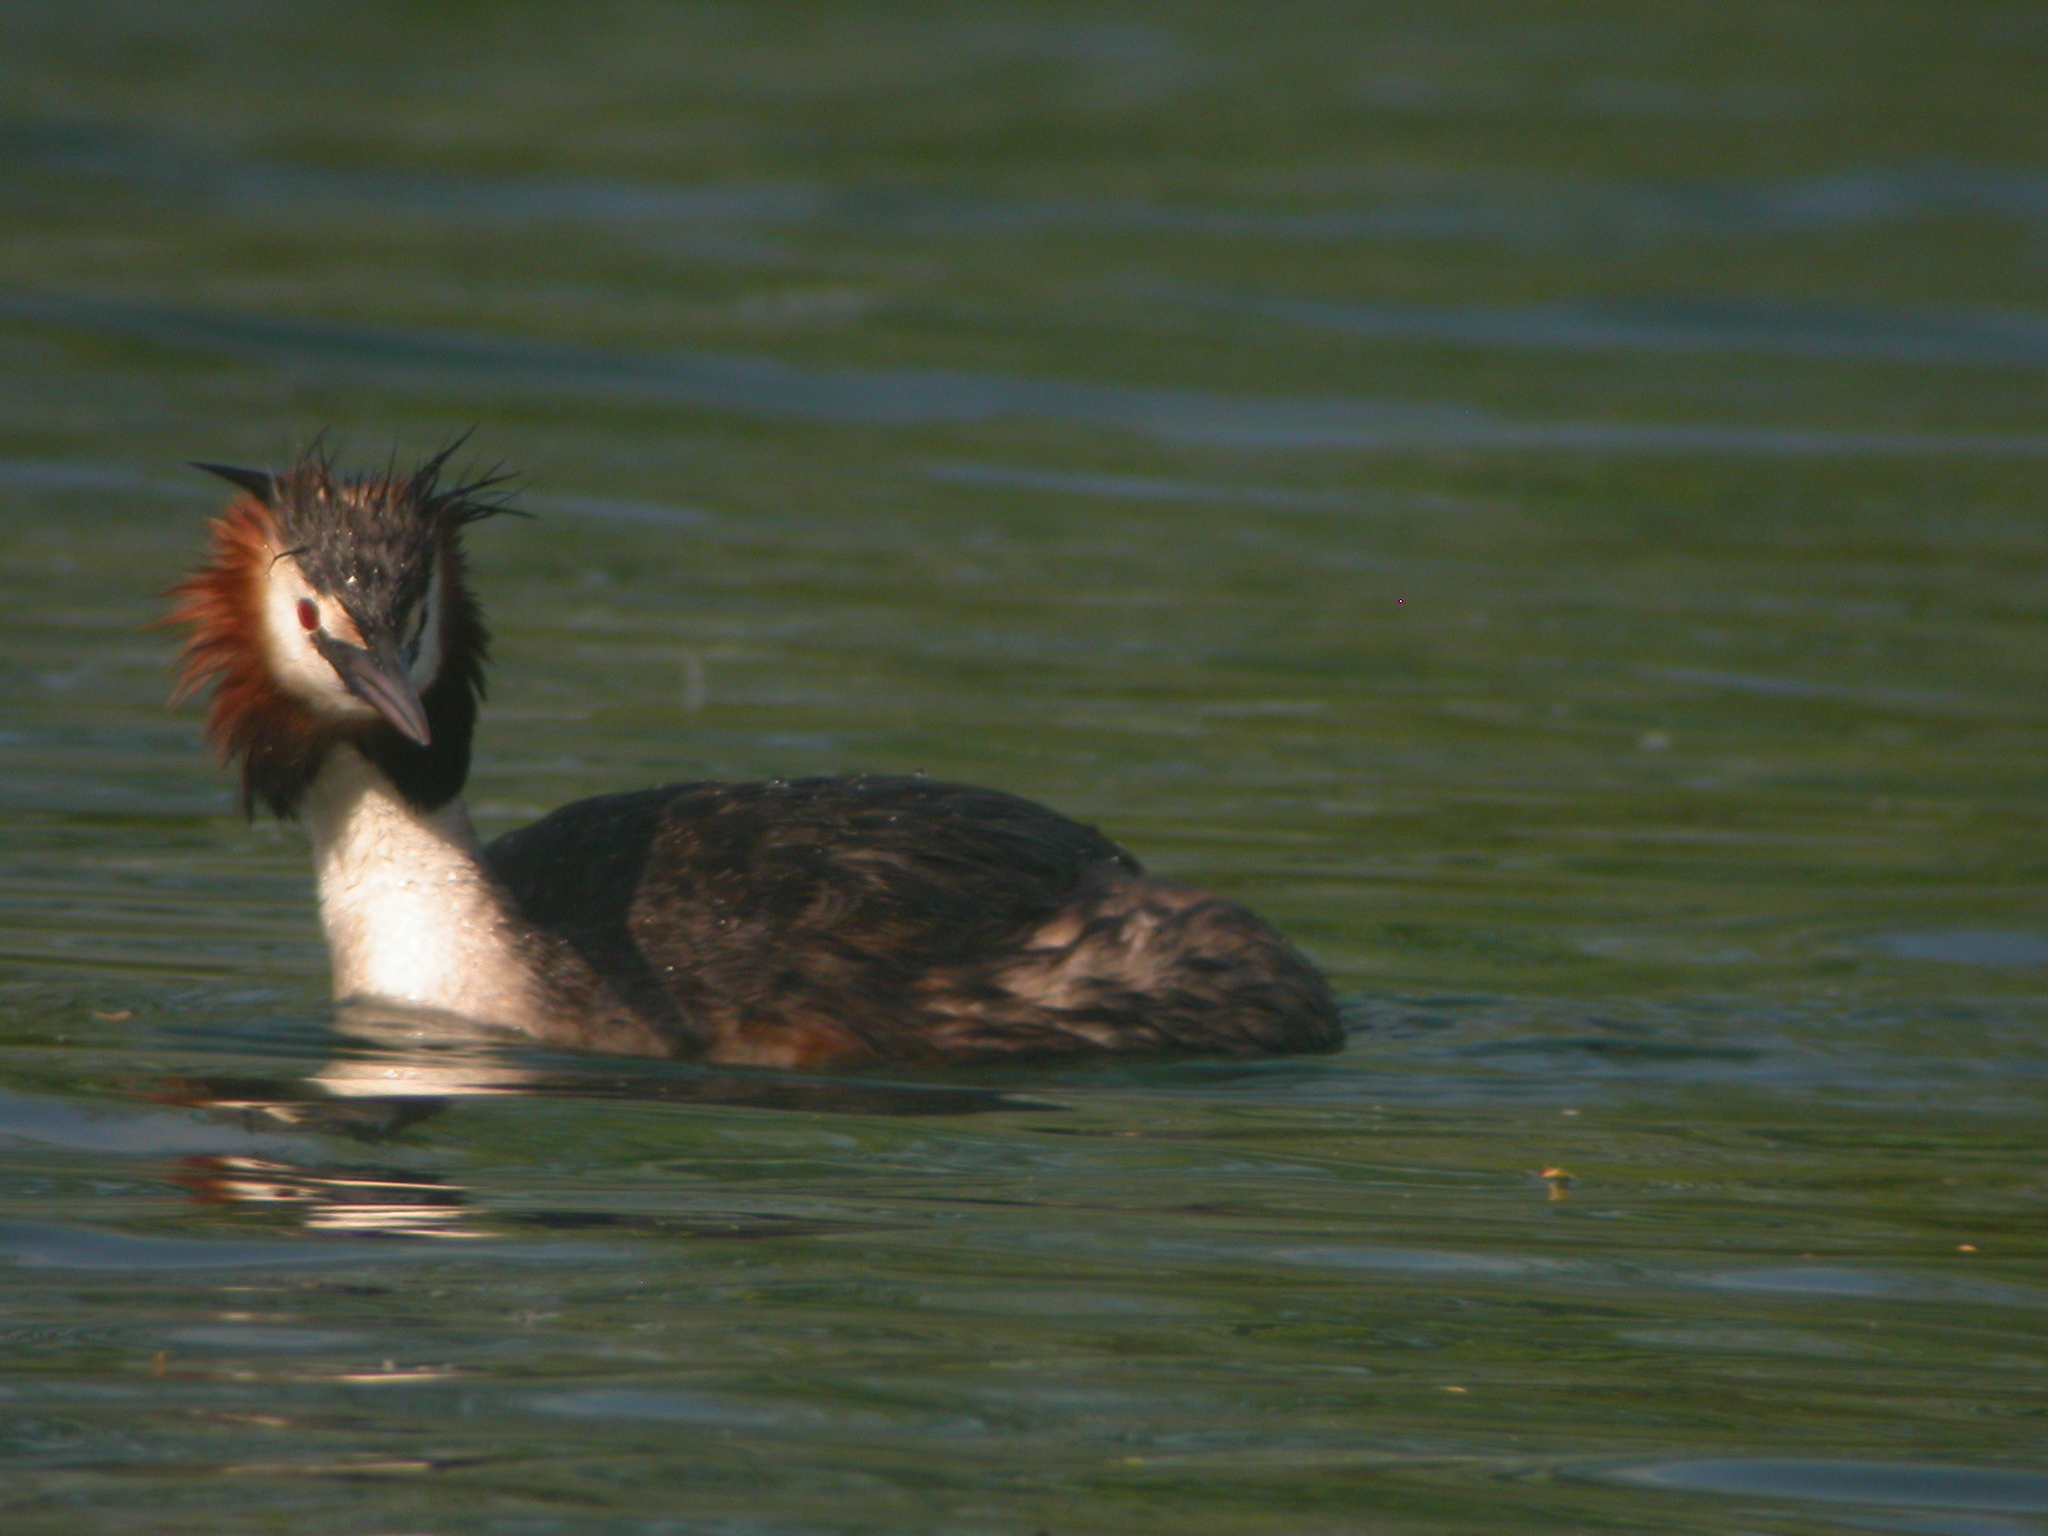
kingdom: Animalia
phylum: Chordata
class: Aves
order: Podicipediformes
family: Podicipedidae
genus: Podiceps
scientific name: Podiceps cristatus
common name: Great crested grebe
